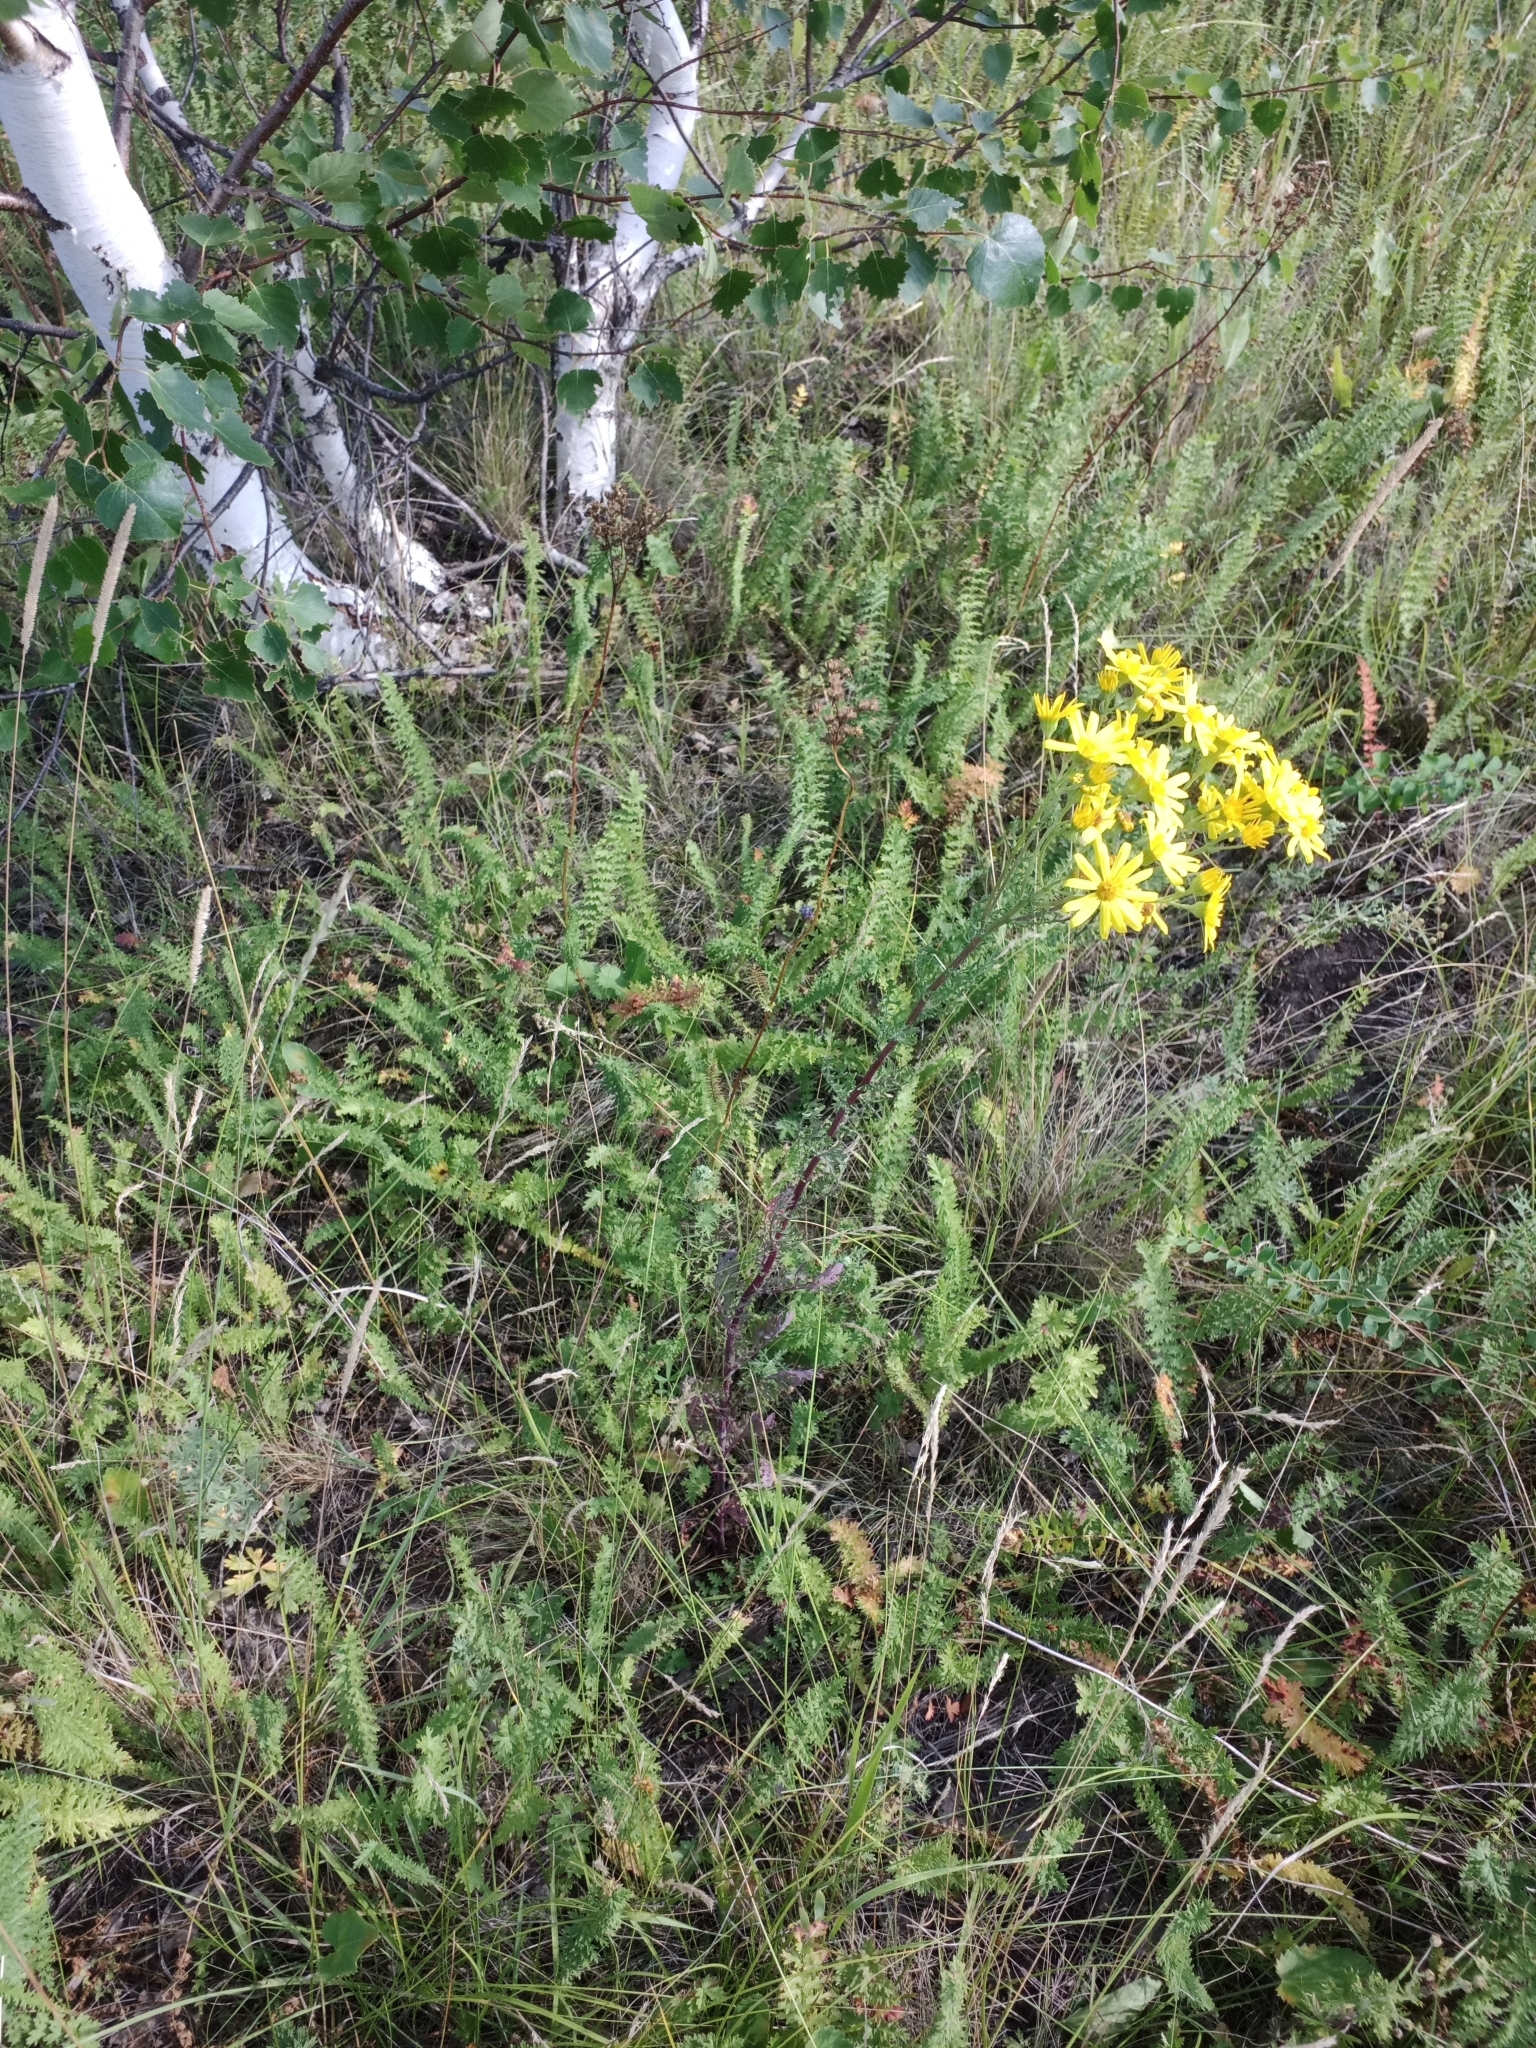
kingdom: Plantae
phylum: Tracheophyta
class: Magnoliopsida
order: Asterales
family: Asteraceae
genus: Jacobaea
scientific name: Jacobaea vulgaris
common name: Stinking willie
